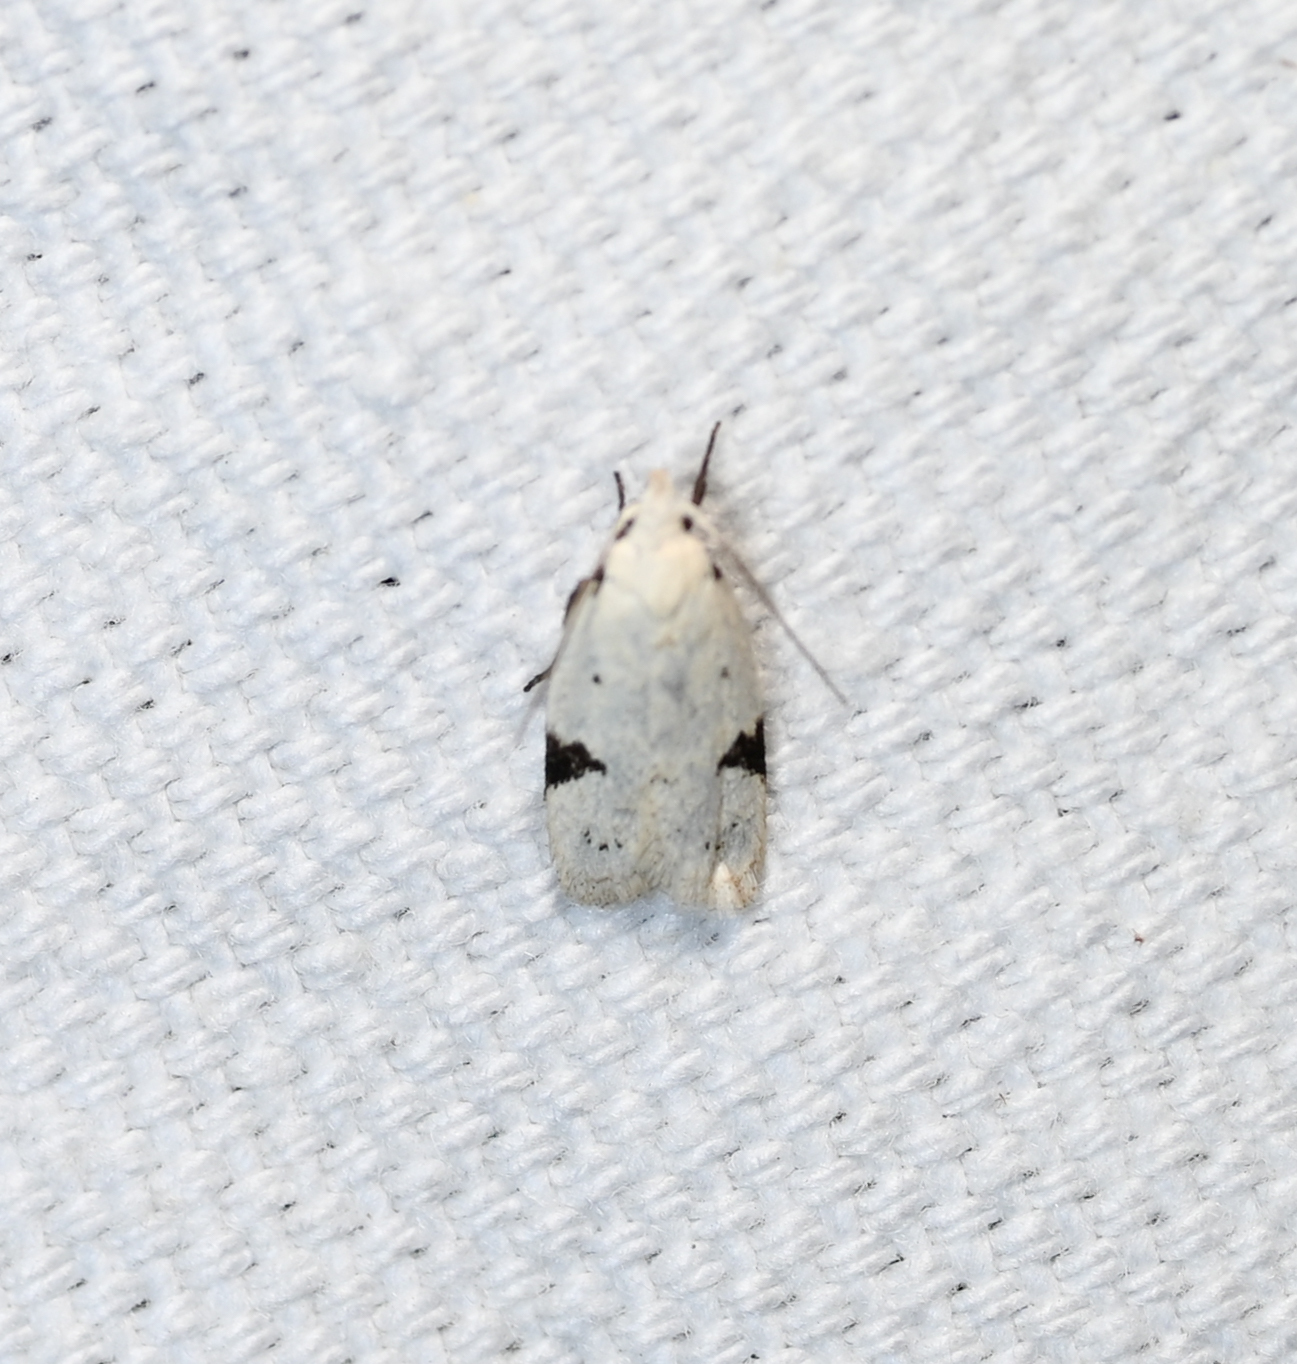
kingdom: Animalia
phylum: Arthropoda
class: Insecta
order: Lepidoptera
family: Oecophoridae
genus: Inga
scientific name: Inga sparsiciliella
